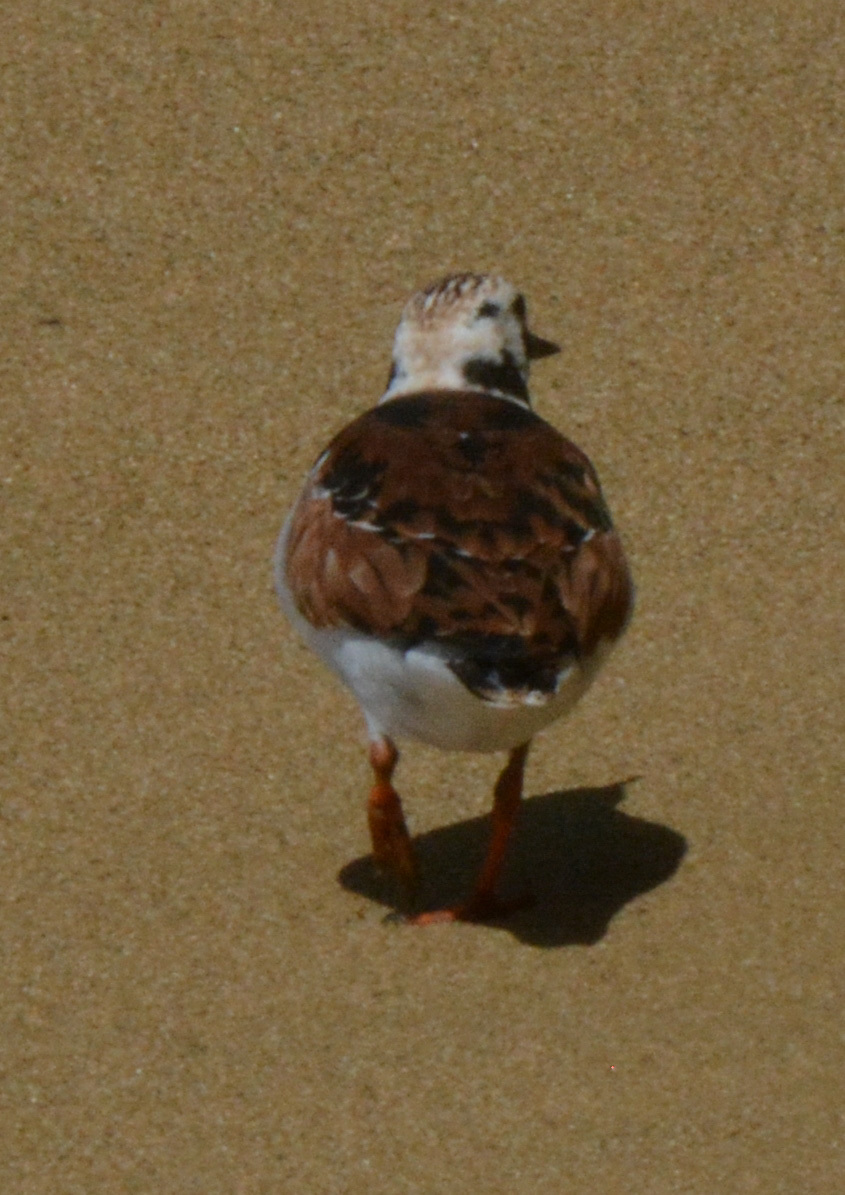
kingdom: Animalia
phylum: Chordata
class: Aves
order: Charadriiformes
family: Scolopacidae
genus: Arenaria
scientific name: Arenaria interpres
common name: Ruddy turnstone
